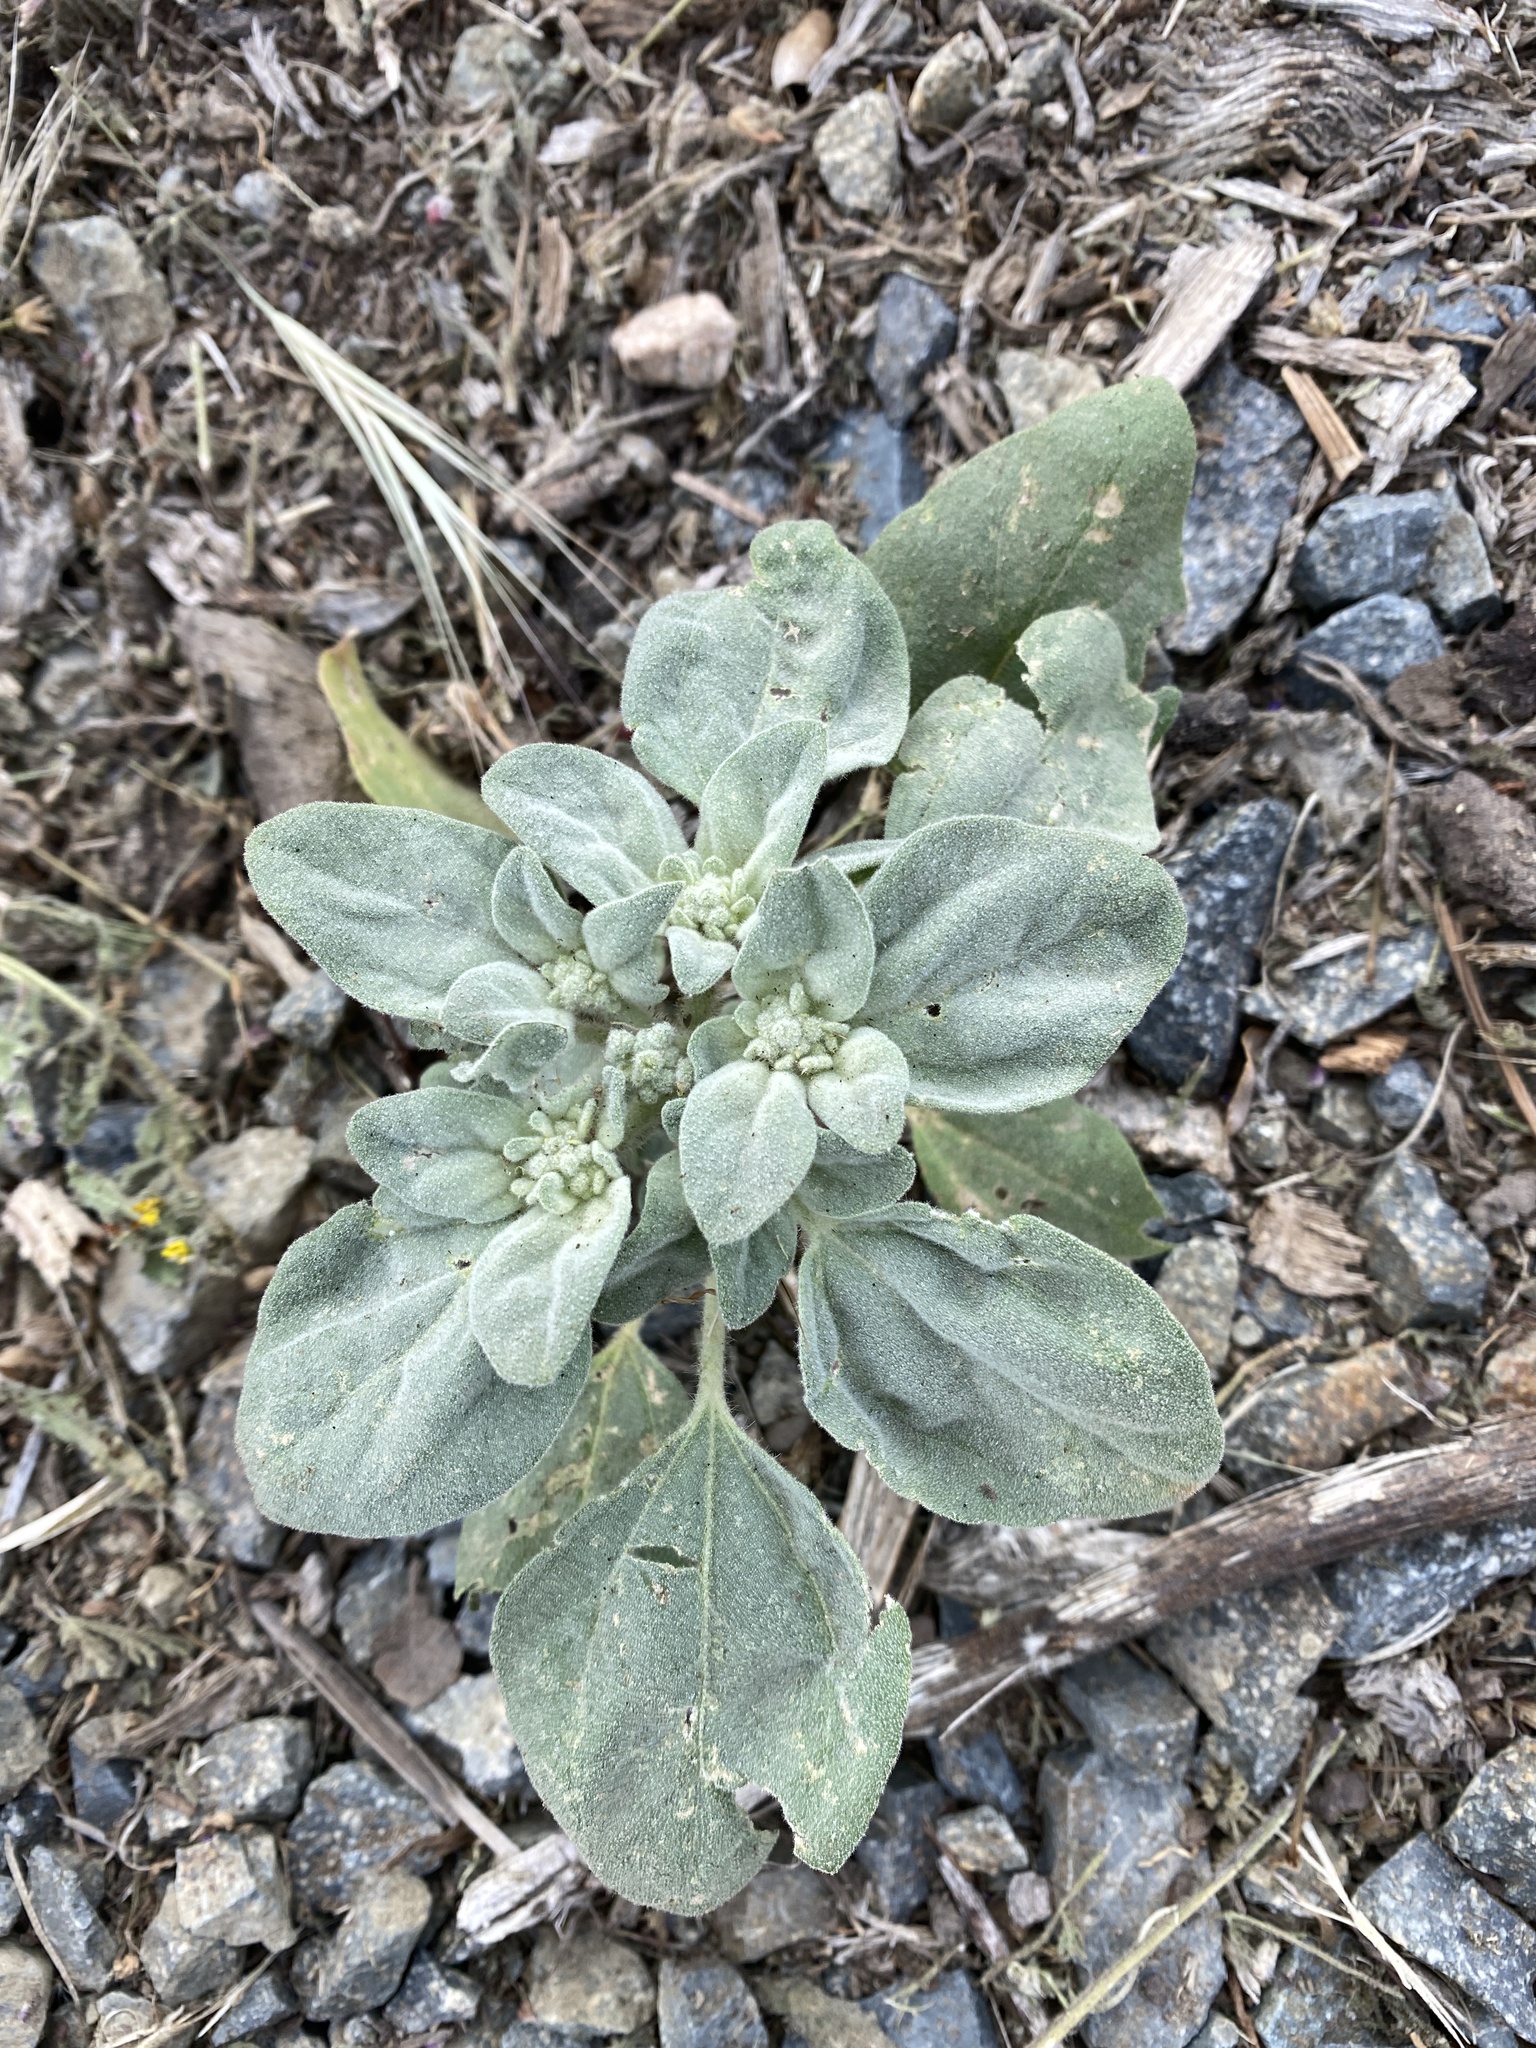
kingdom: Plantae
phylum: Tracheophyta
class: Magnoliopsida
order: Malpighiales
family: Euphorbiaceae
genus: Croton
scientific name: Croton setiger
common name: Dove weed
